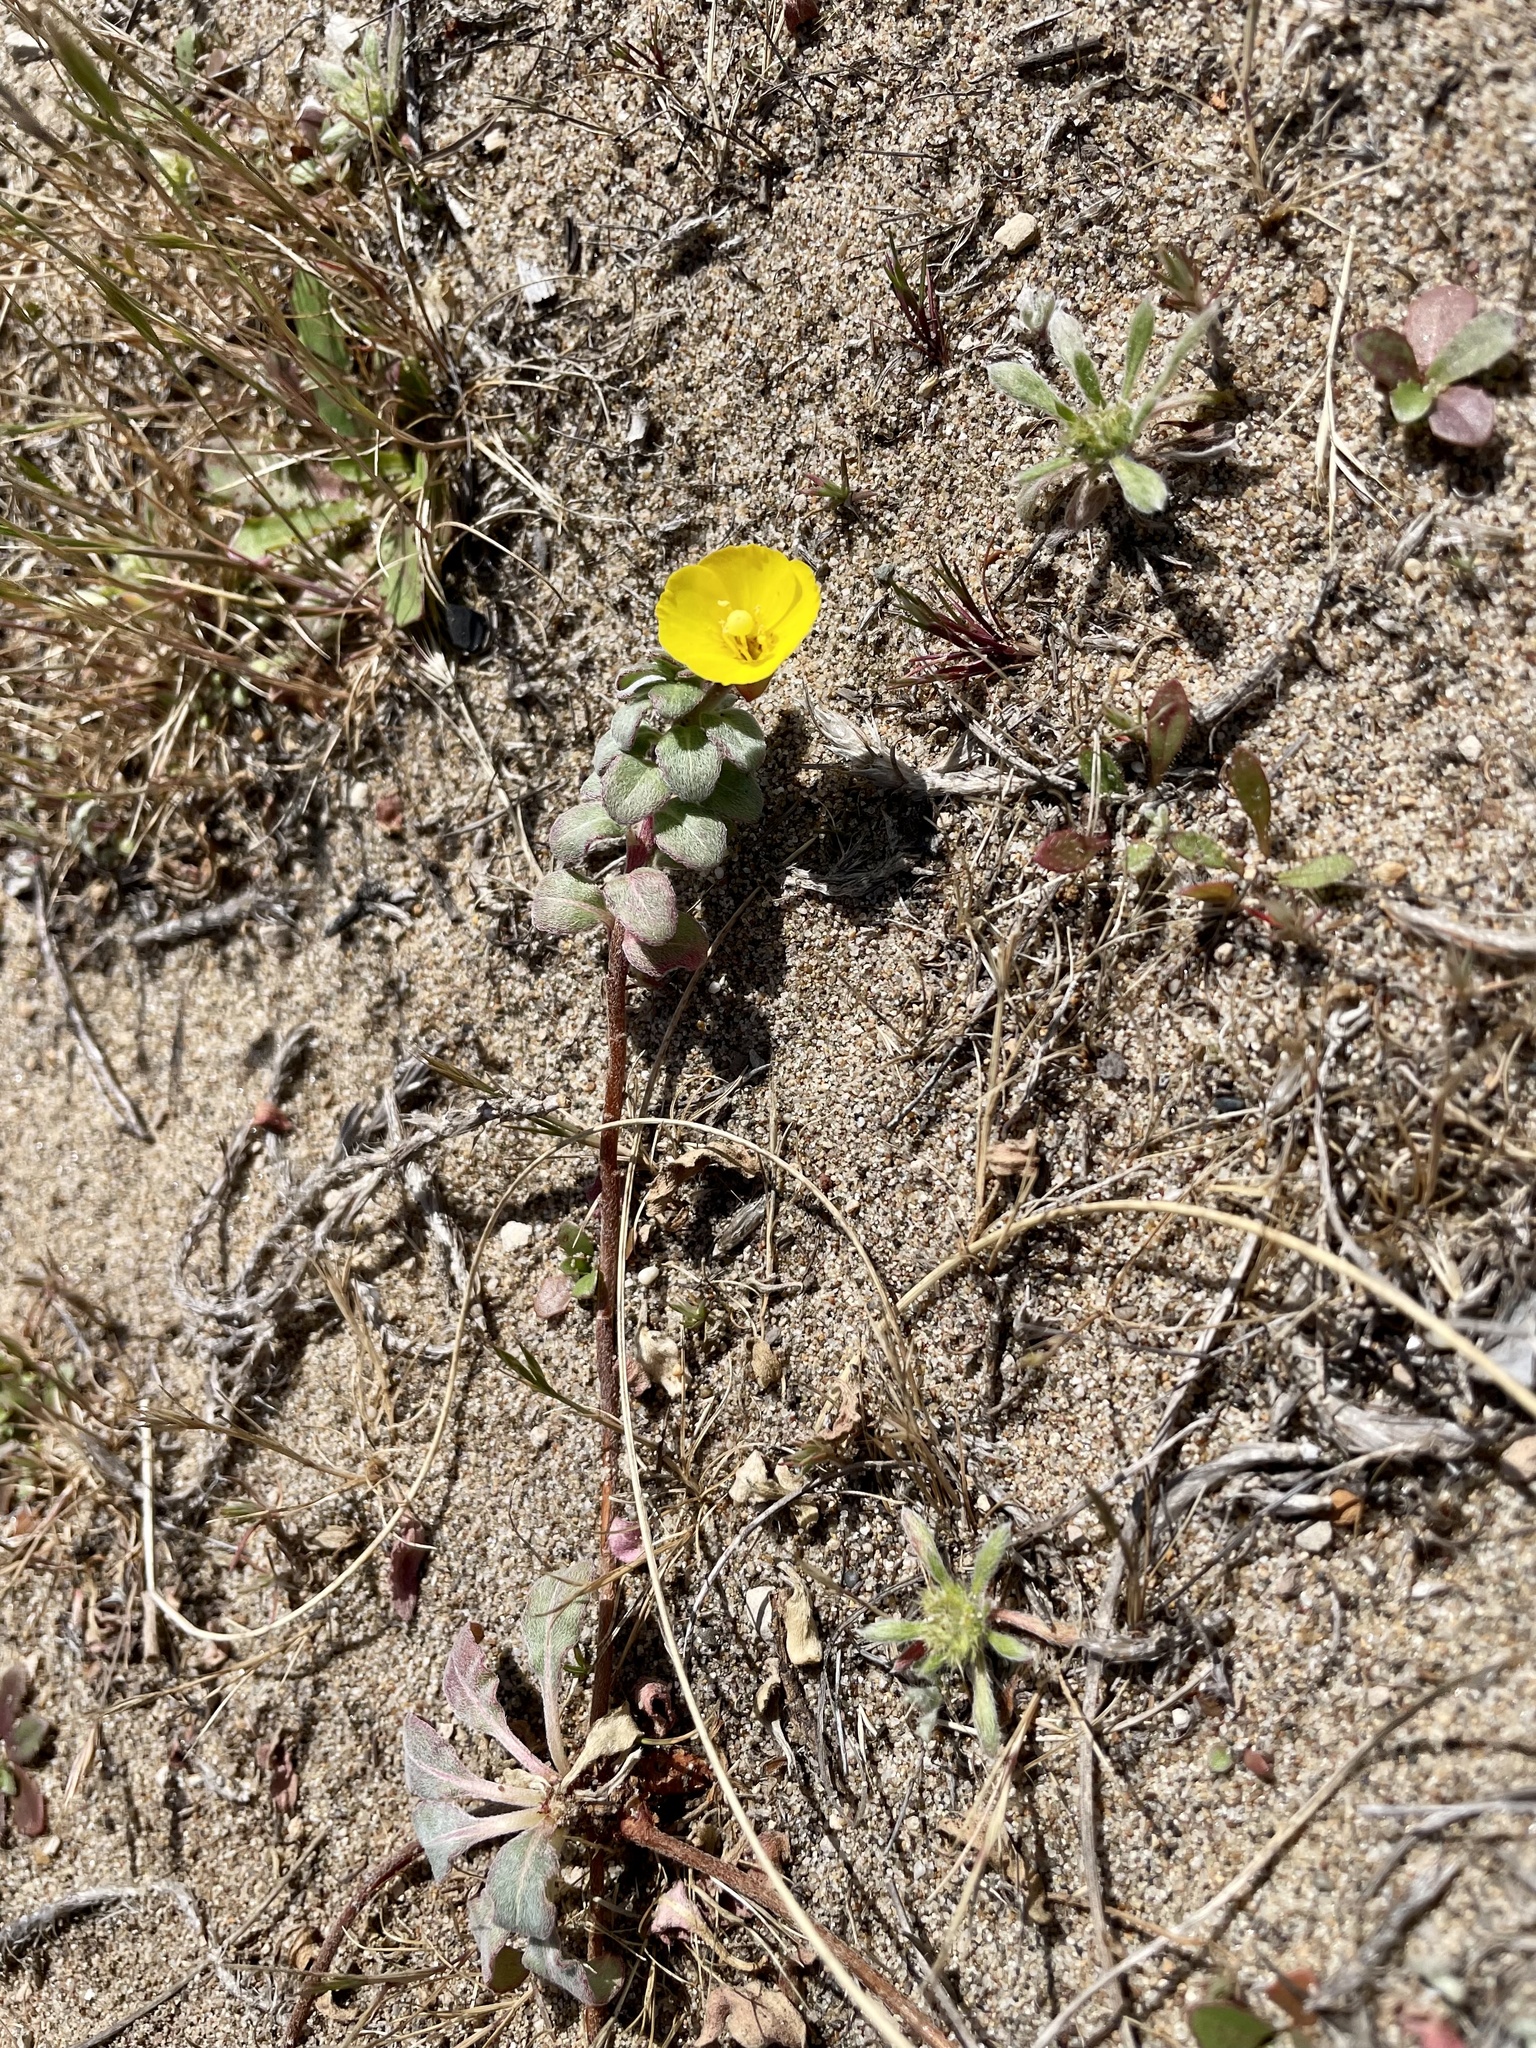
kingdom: Plantae
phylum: Tracheophyta
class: Magnoliopsida
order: Myrtales
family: Onagraceae
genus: Camissoniopsis
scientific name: Camissoniopsis cheiranthifolia
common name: Beach suncup
